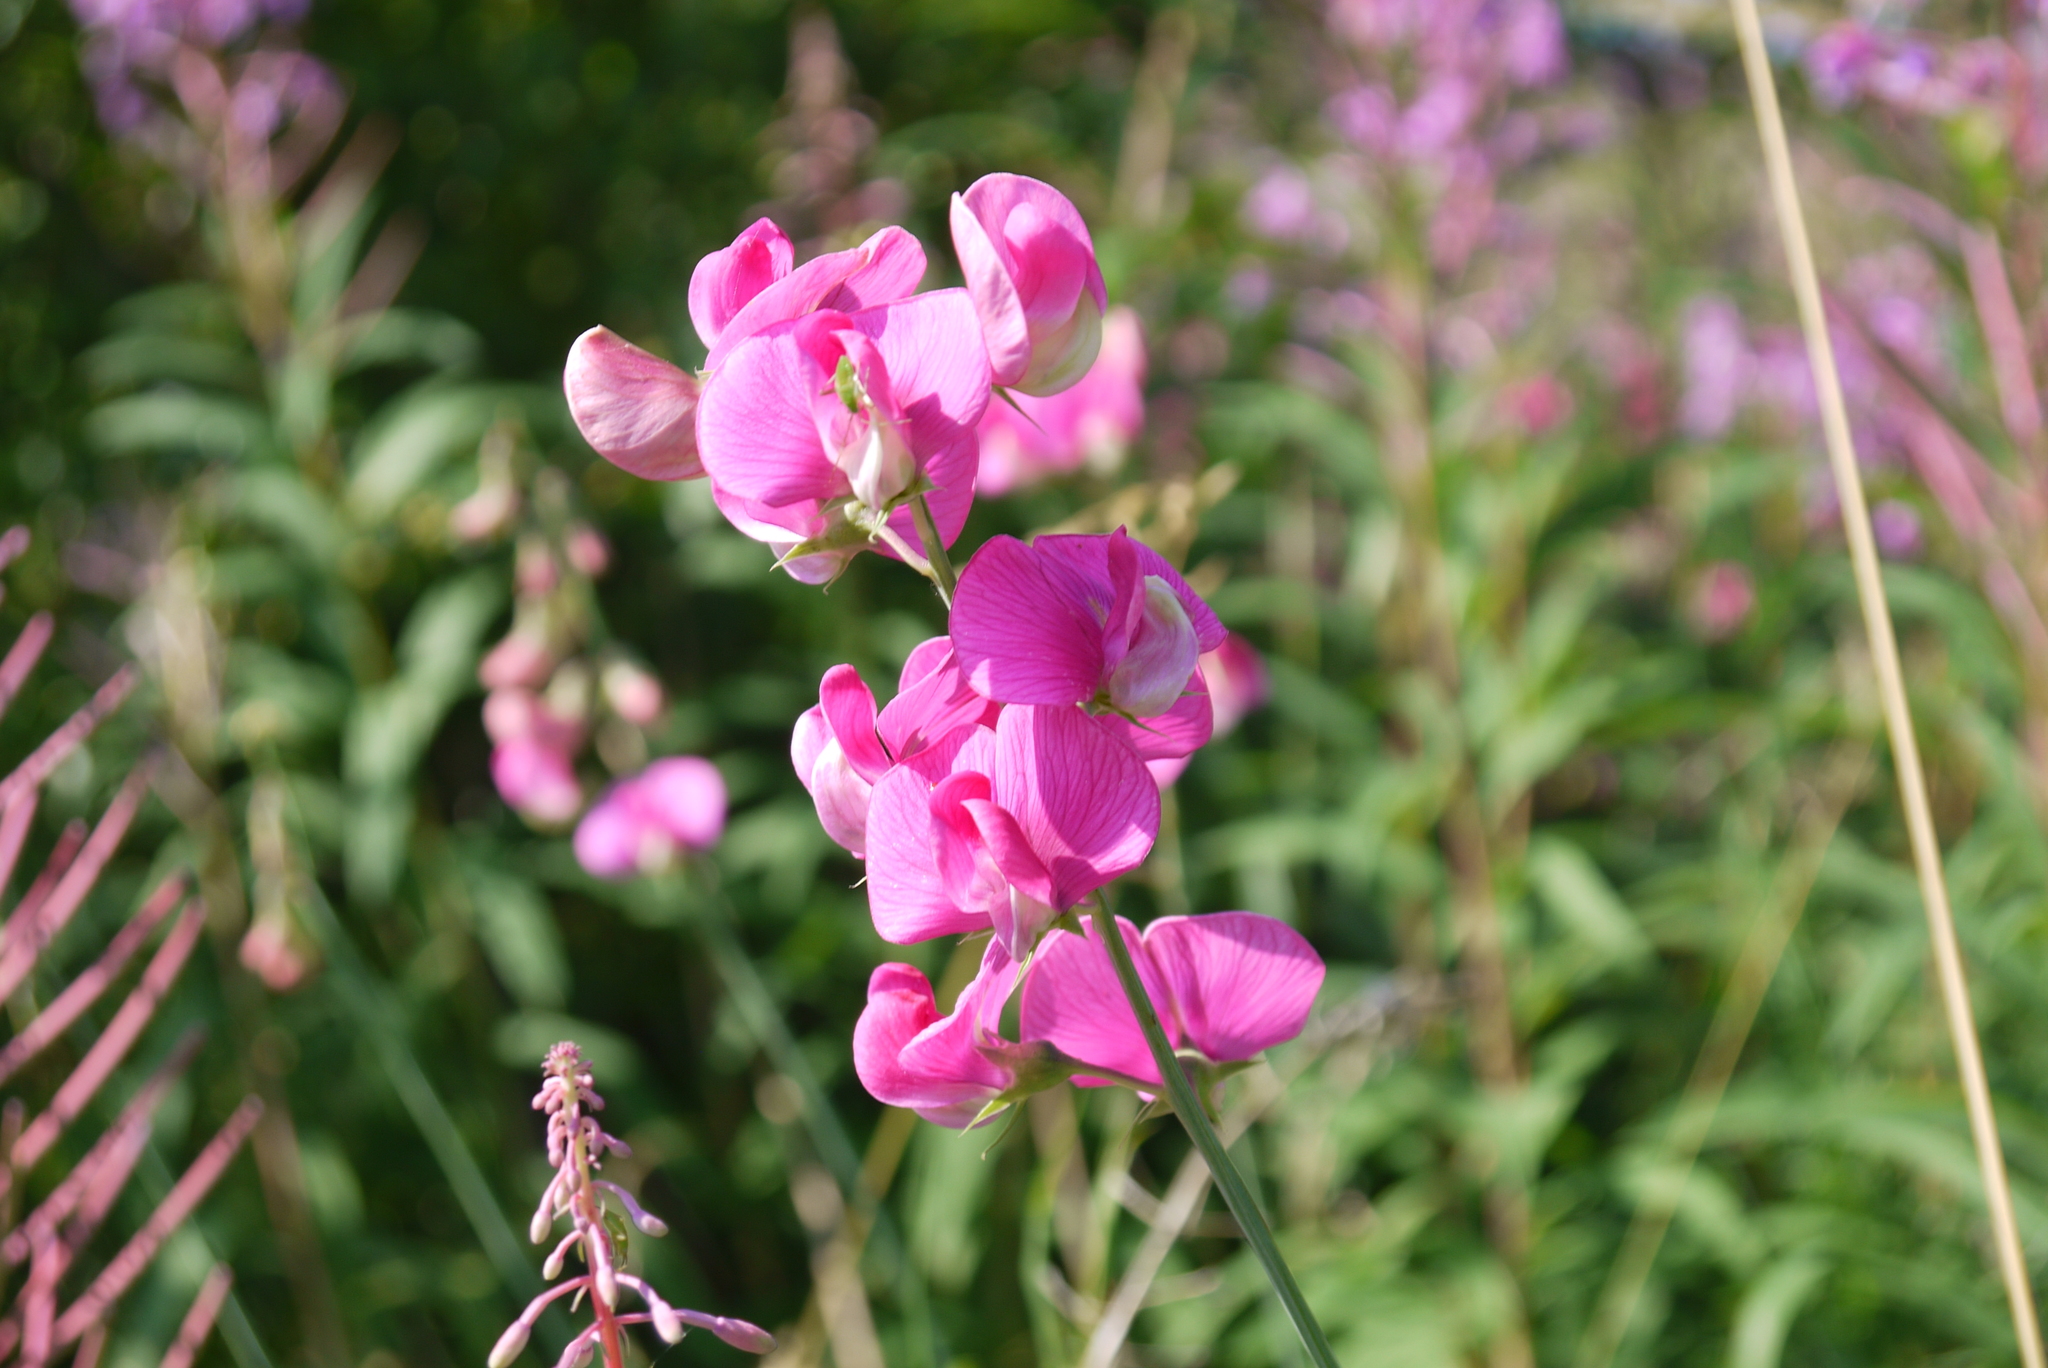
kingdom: Plantae
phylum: Tracheophyta
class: Magnoliopsida
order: Fabales
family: Fabaceae
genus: Lathyrus
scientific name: Lathyrus latifolius
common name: Perennial pea
